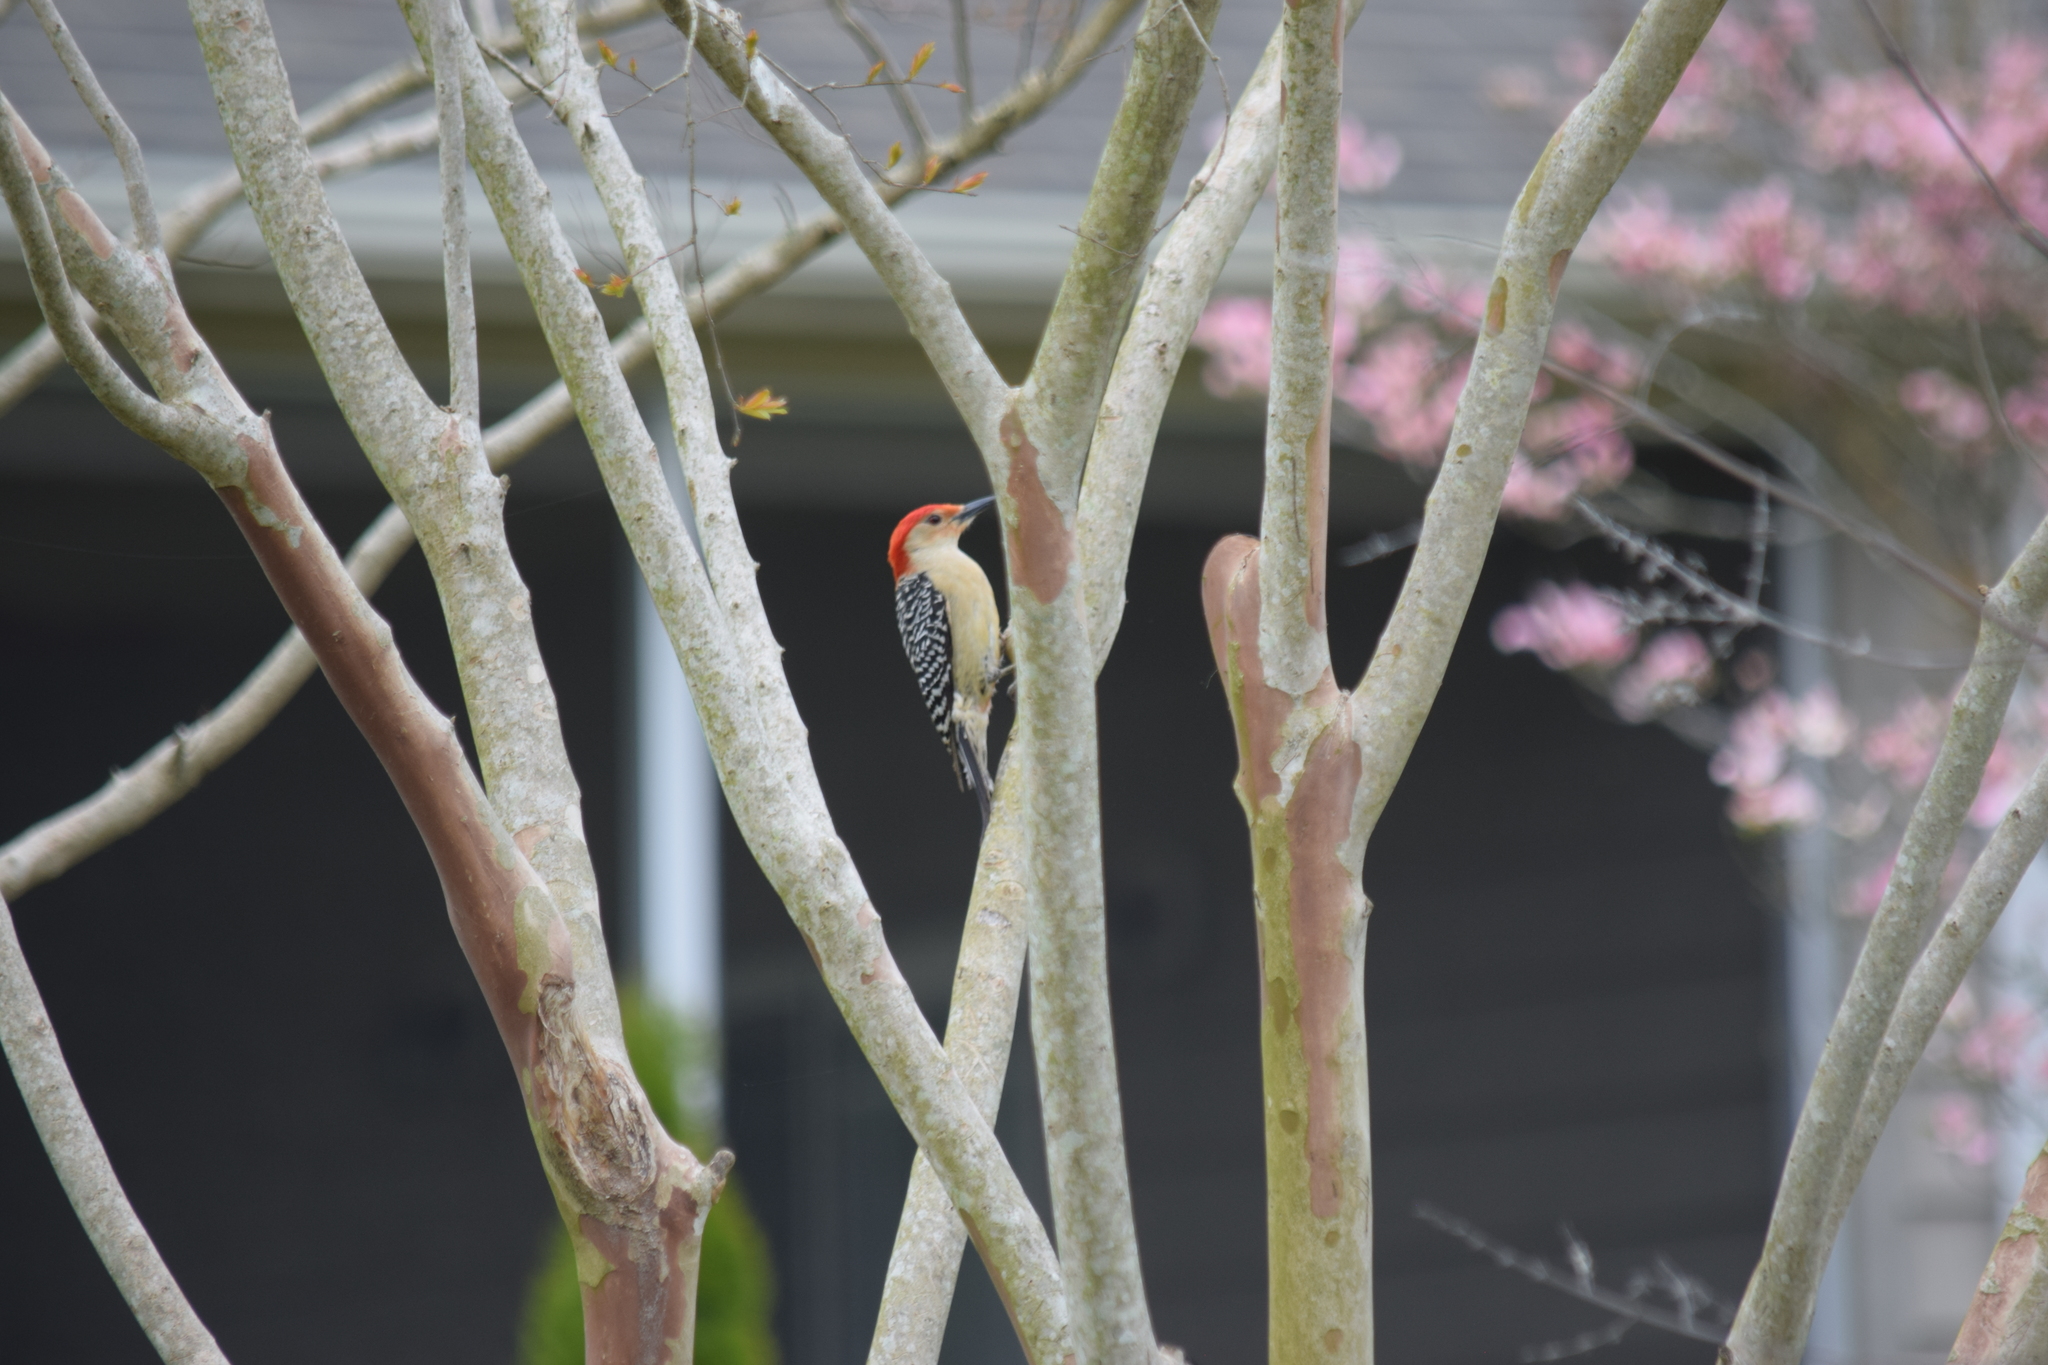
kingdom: Animalia
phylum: Chordata
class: Aves
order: Piciformes
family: Picidae
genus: Melanerpes
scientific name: Melanerpes carolinus
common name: Red-bellied woodpecker
